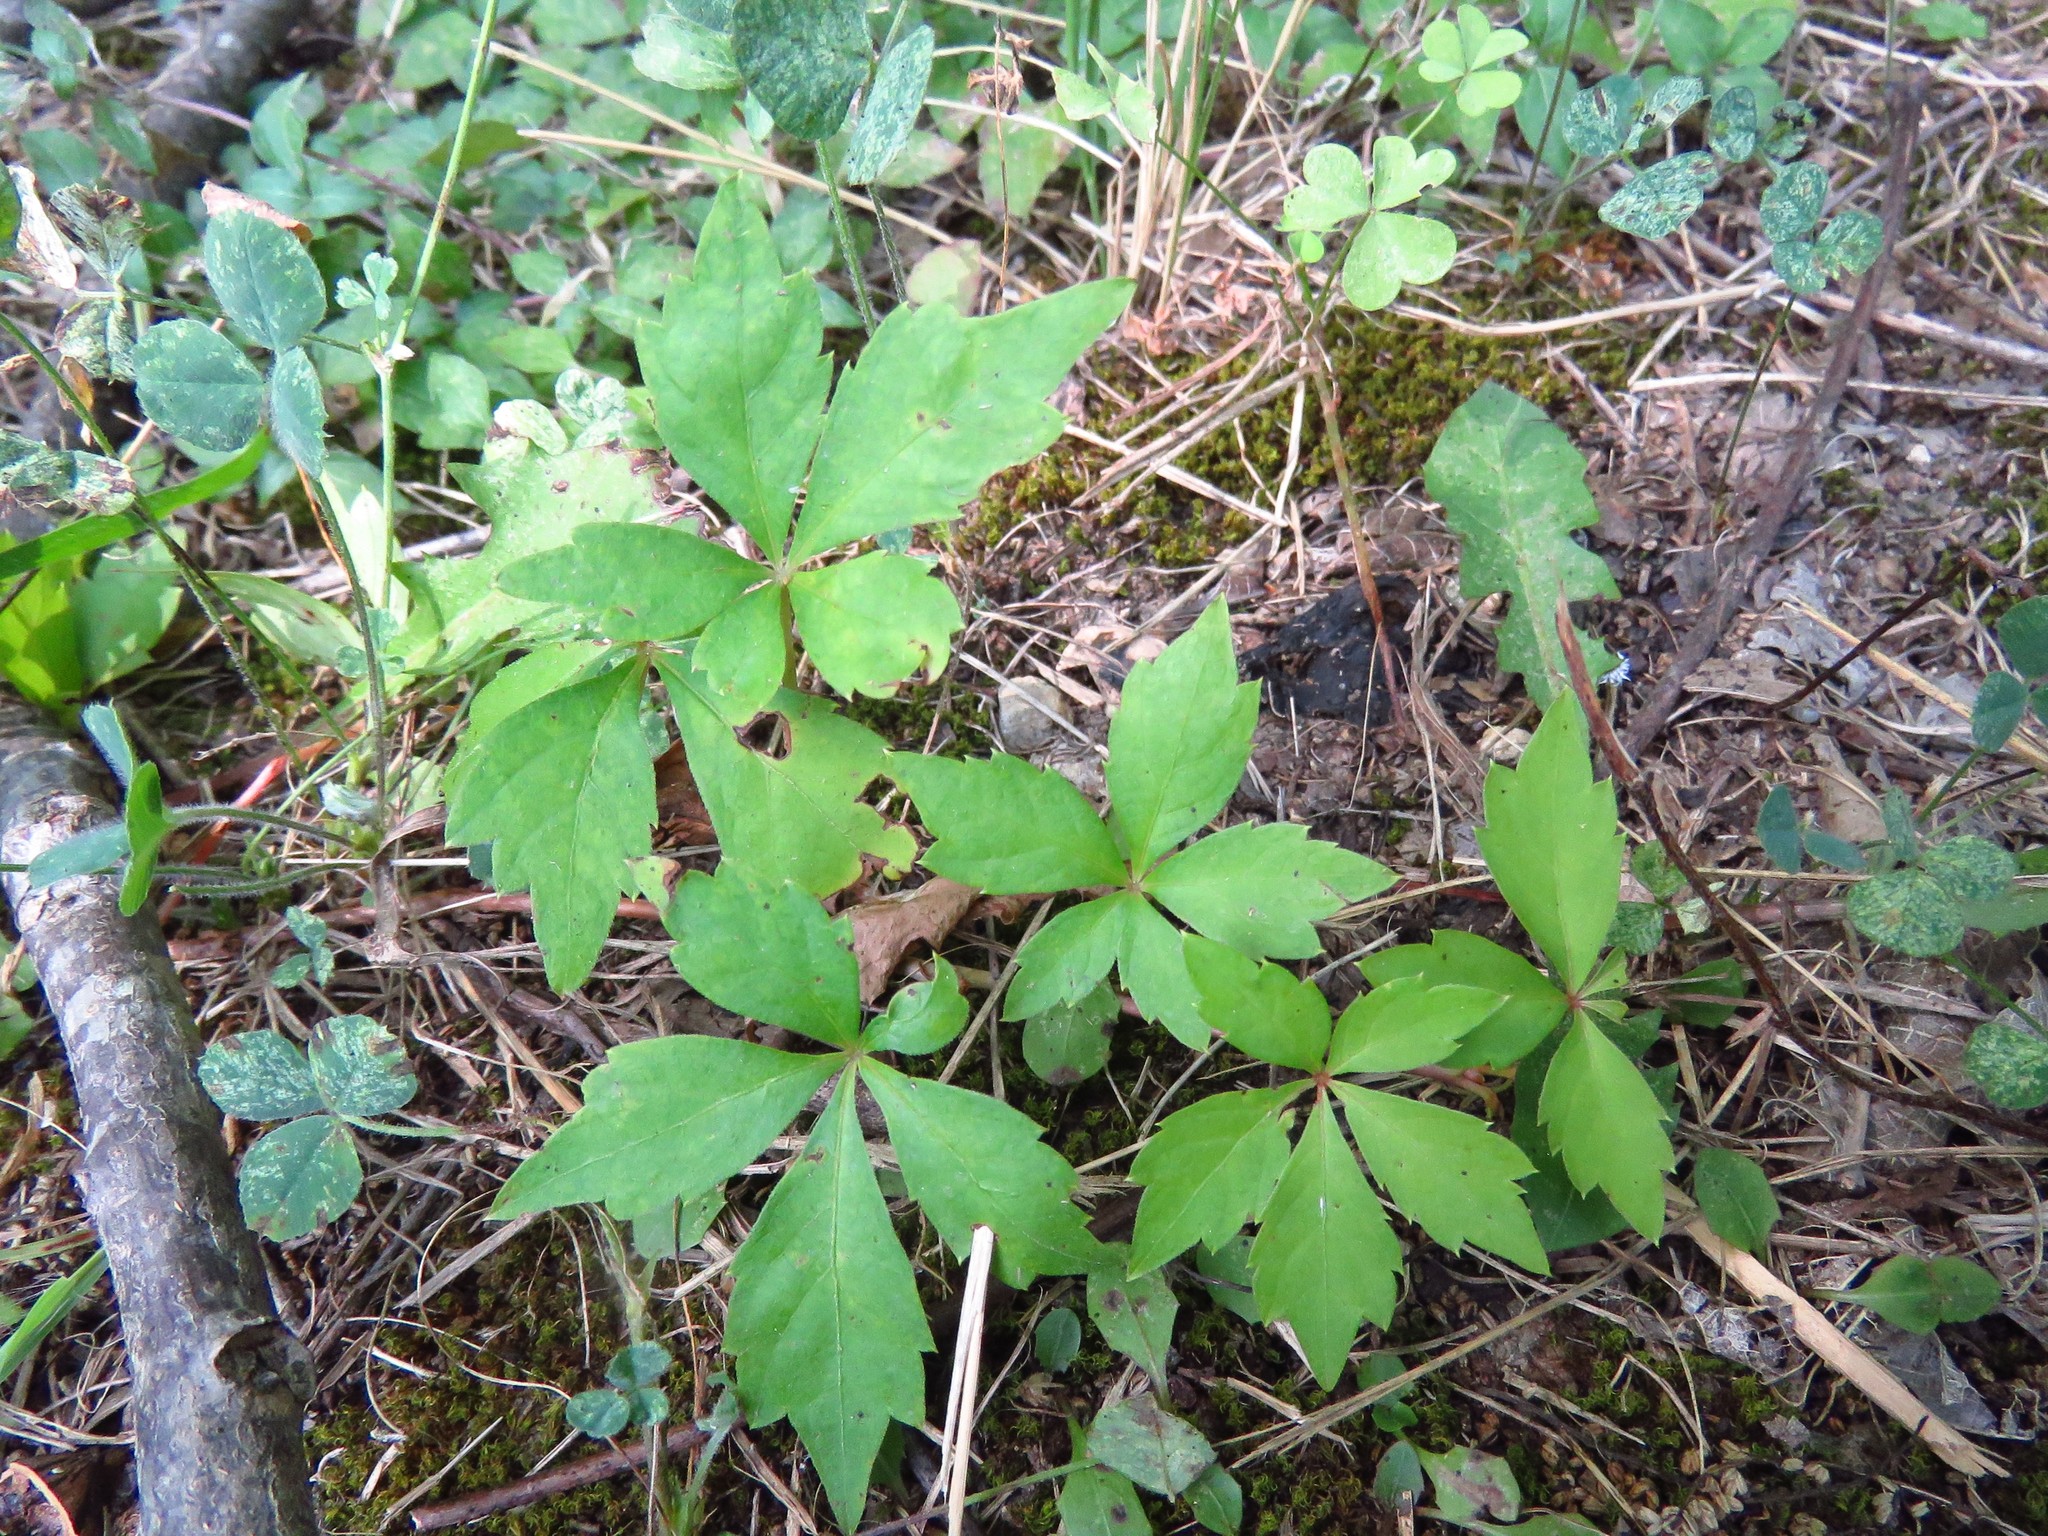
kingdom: Plantae
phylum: Tracheophyta
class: Magnoliopsida
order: Vitales
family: Vitaceae
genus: Parthenocissus
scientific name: Parthenocissus quinquefolia
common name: Virginia-creeper
